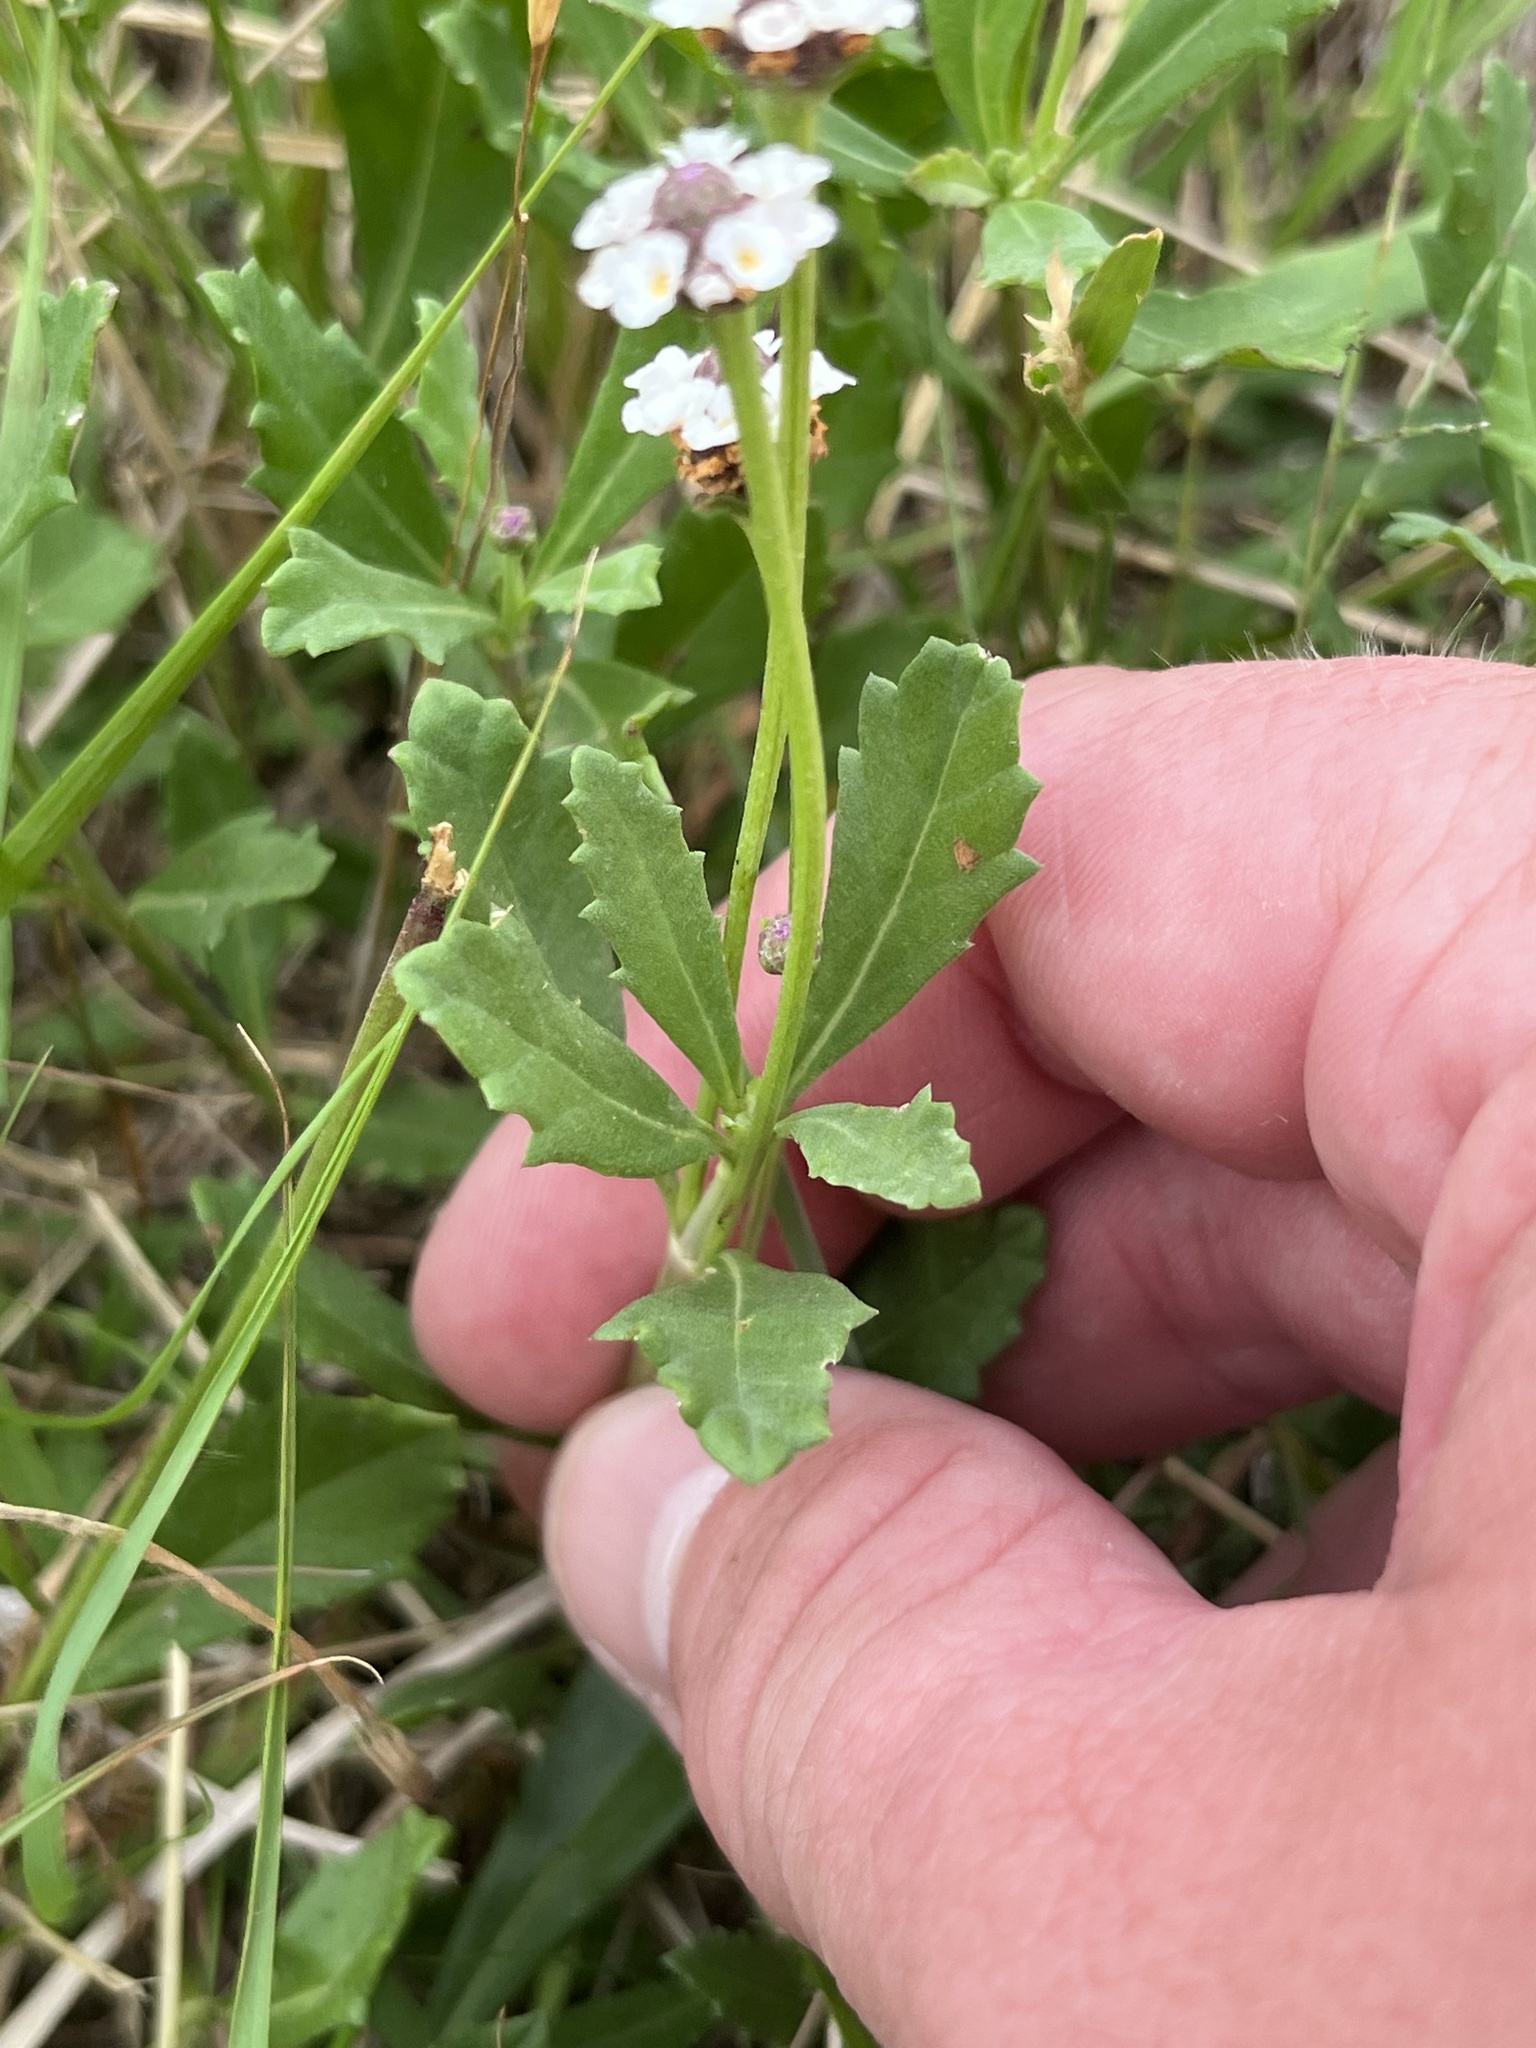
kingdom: Plantae
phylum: Tracheophyta
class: Magnoliopsida
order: Lamiales
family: Verbenaceae
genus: Phyla
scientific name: Phyla nodiflora
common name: Frogfruit
